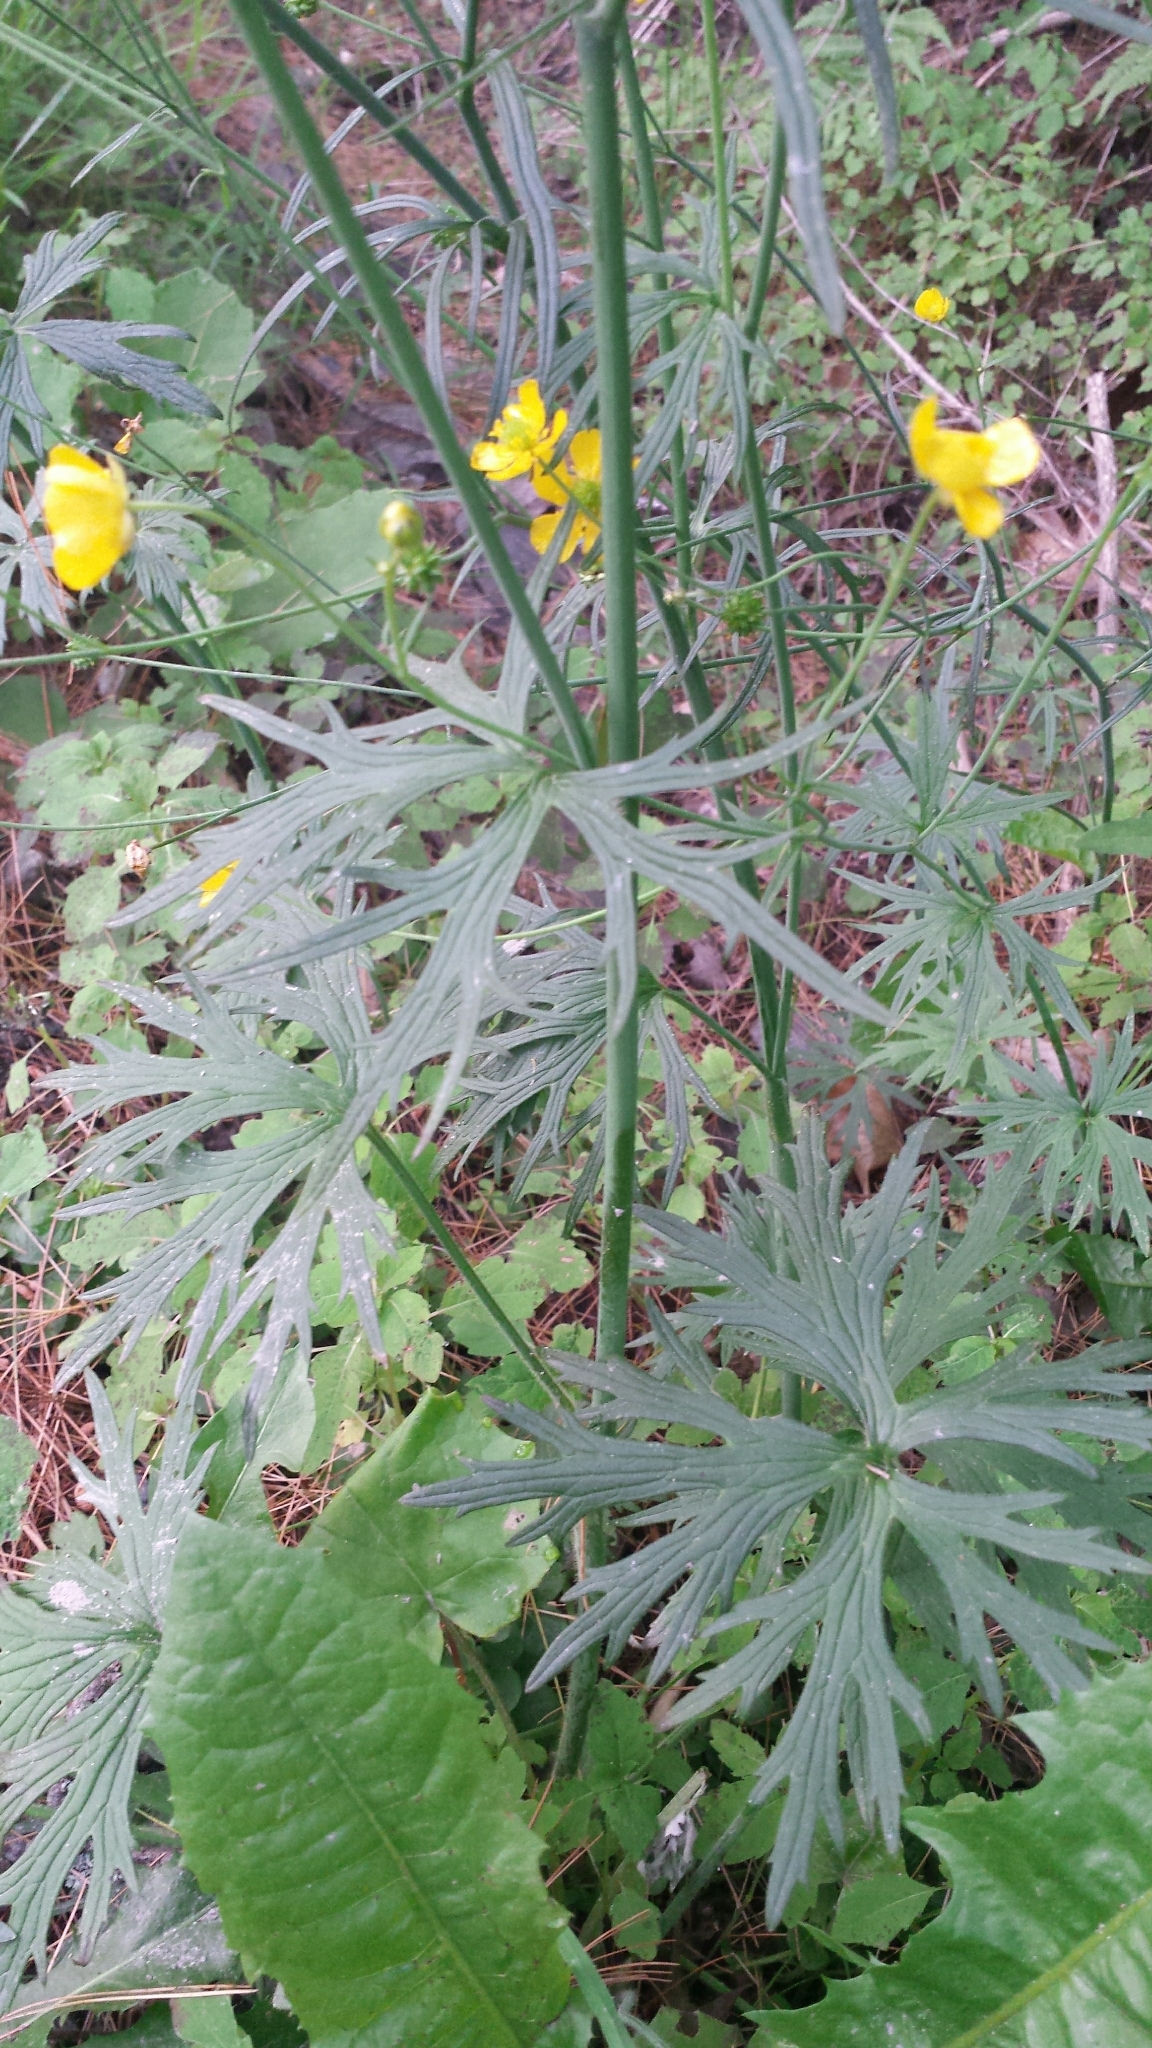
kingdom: Plantae
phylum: Tracheophyta
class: Magnoliopsida
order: Ranunculales
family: Ranunculaceae
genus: Ranunculus
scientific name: Ranunculus acris
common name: Meadow buttercup
